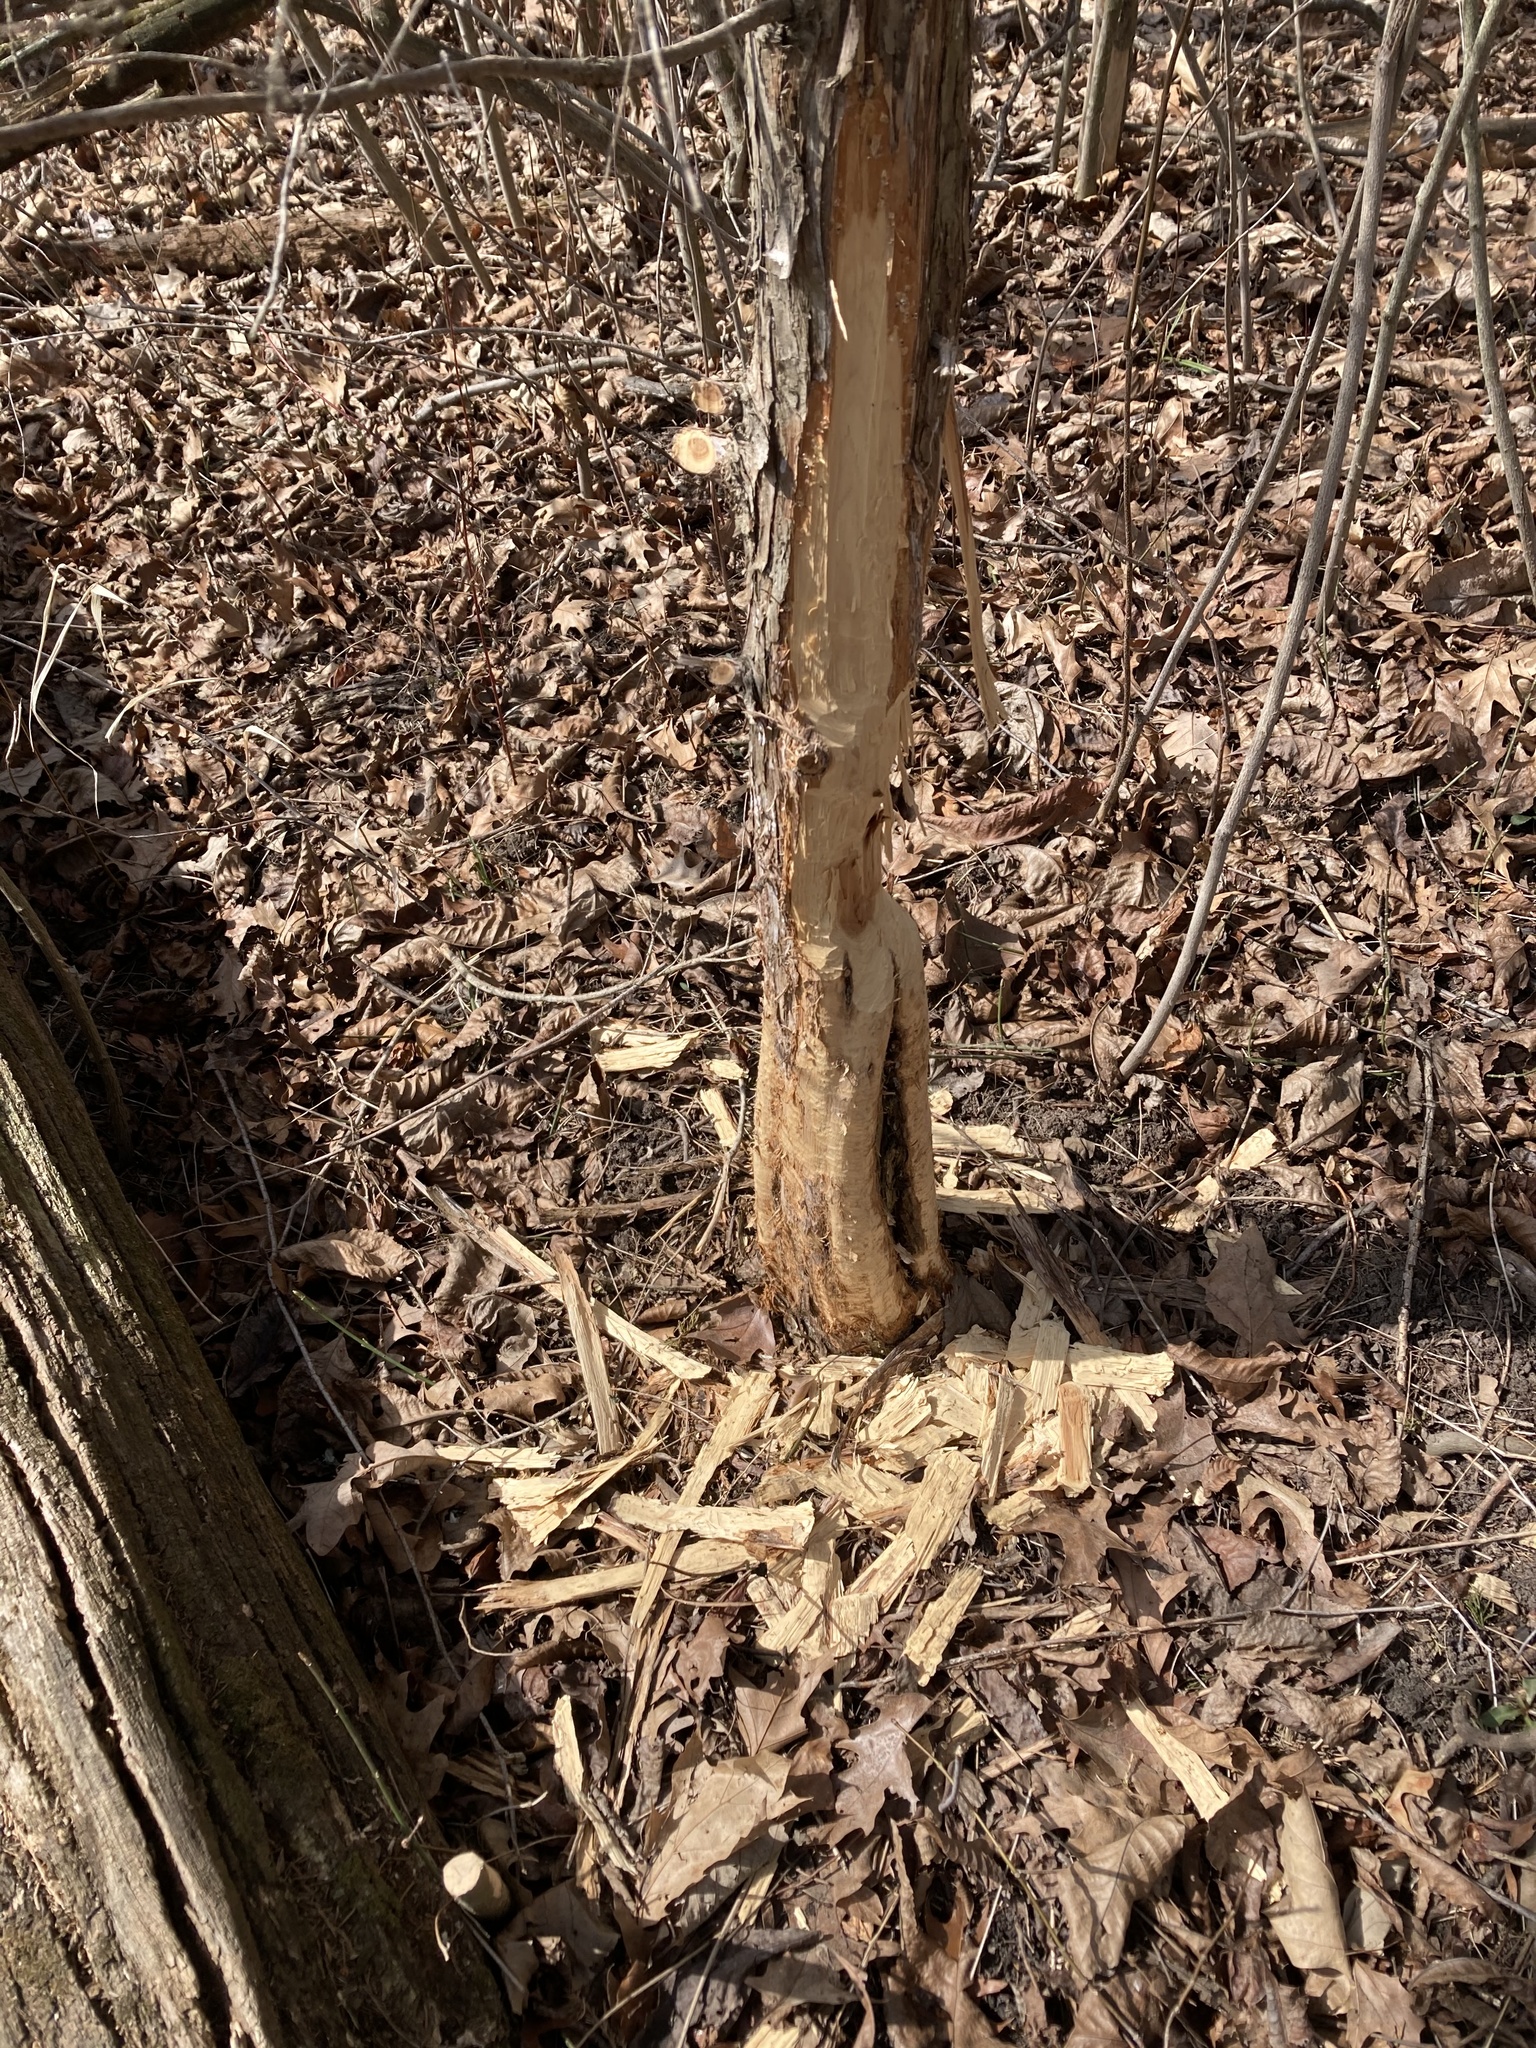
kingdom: Animalia
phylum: Chordata
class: Mammalia
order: Rodentia
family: Castoridae
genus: Castor
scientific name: Castor canadensis
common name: American beaver
